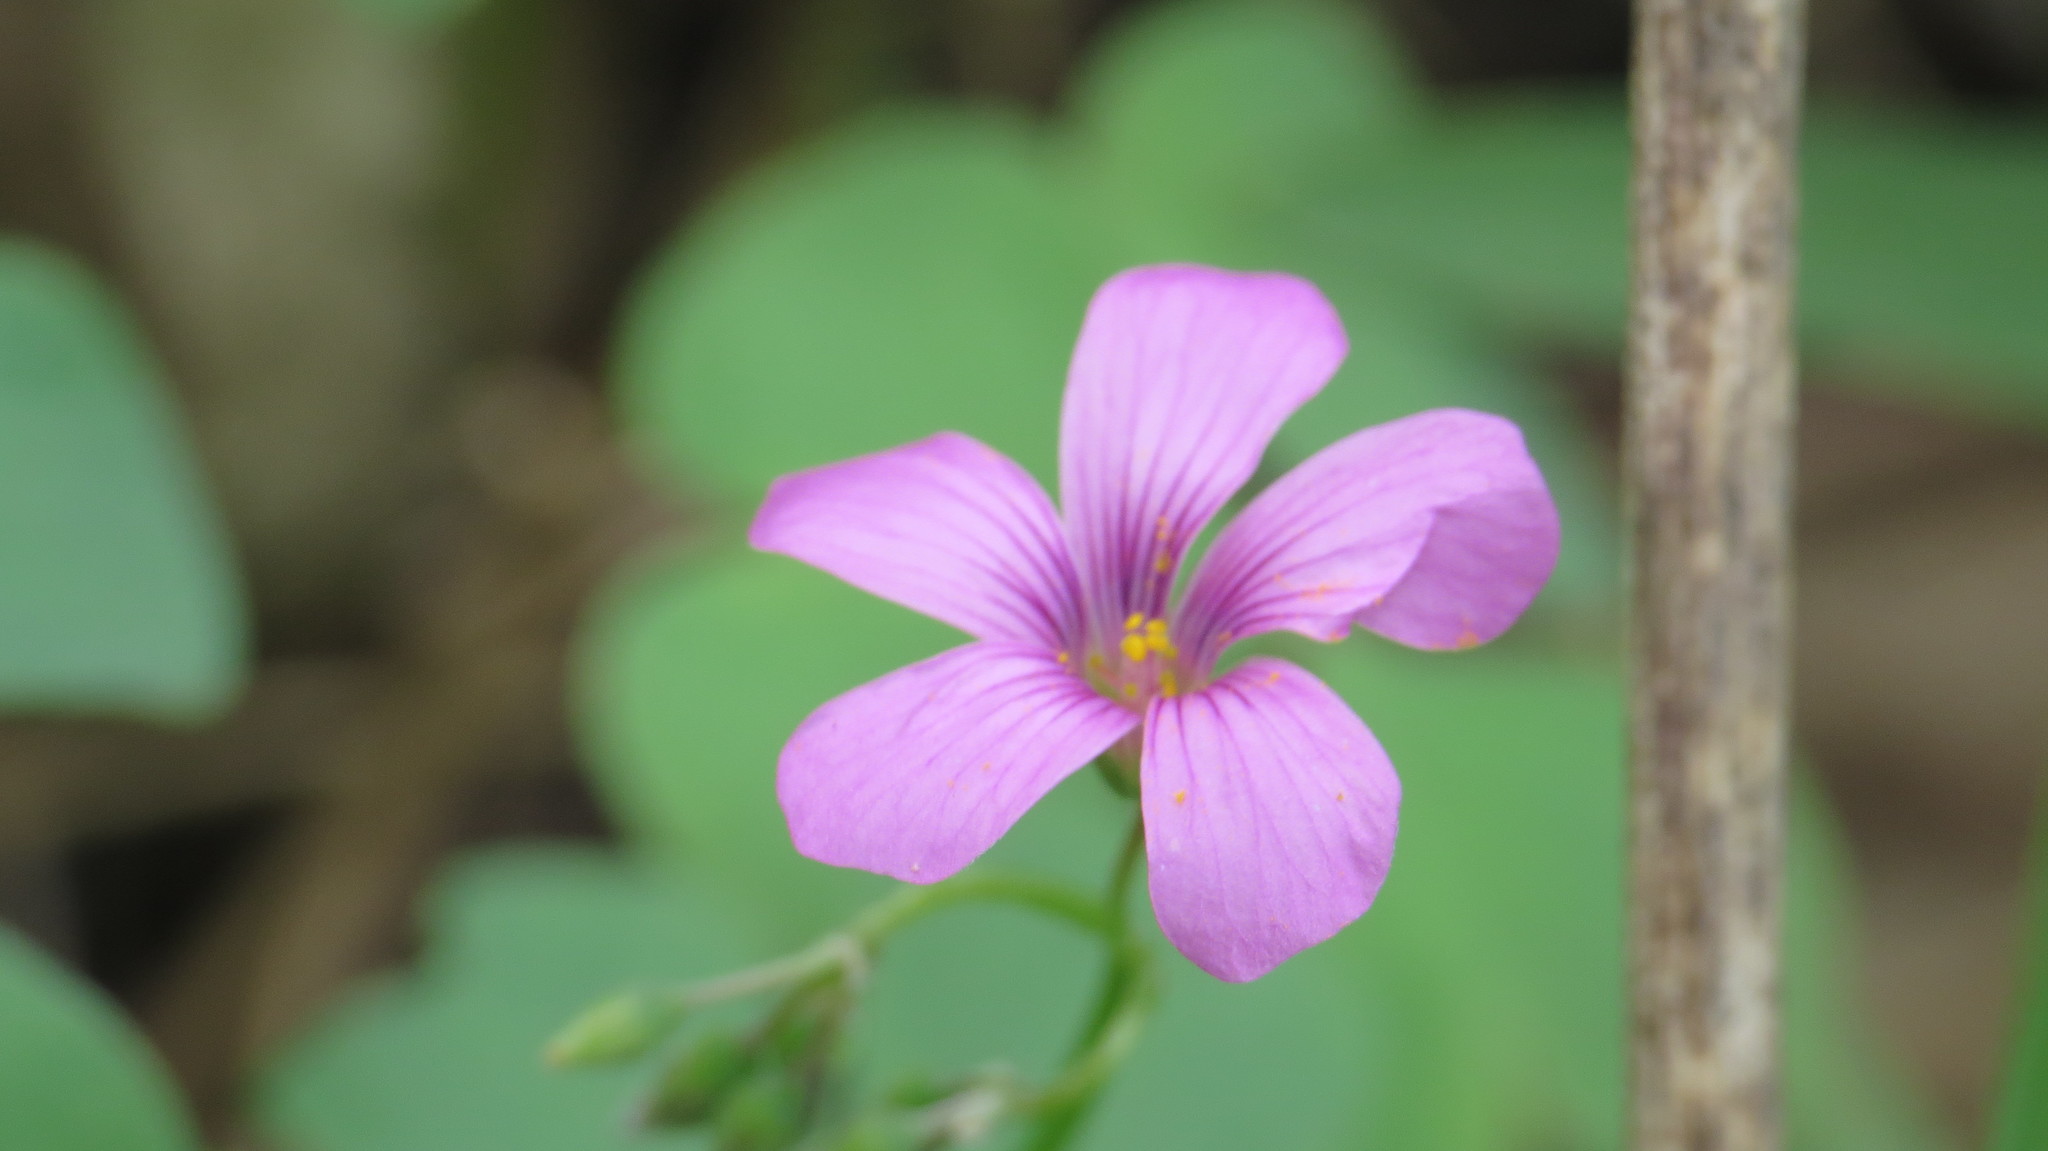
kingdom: Plantae
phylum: Tracheophyta
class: Magnoliopsida
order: Oxalidales
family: Oxalidaceae
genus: Oxalis
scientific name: Oxalis articulata
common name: Pink-sorrel
